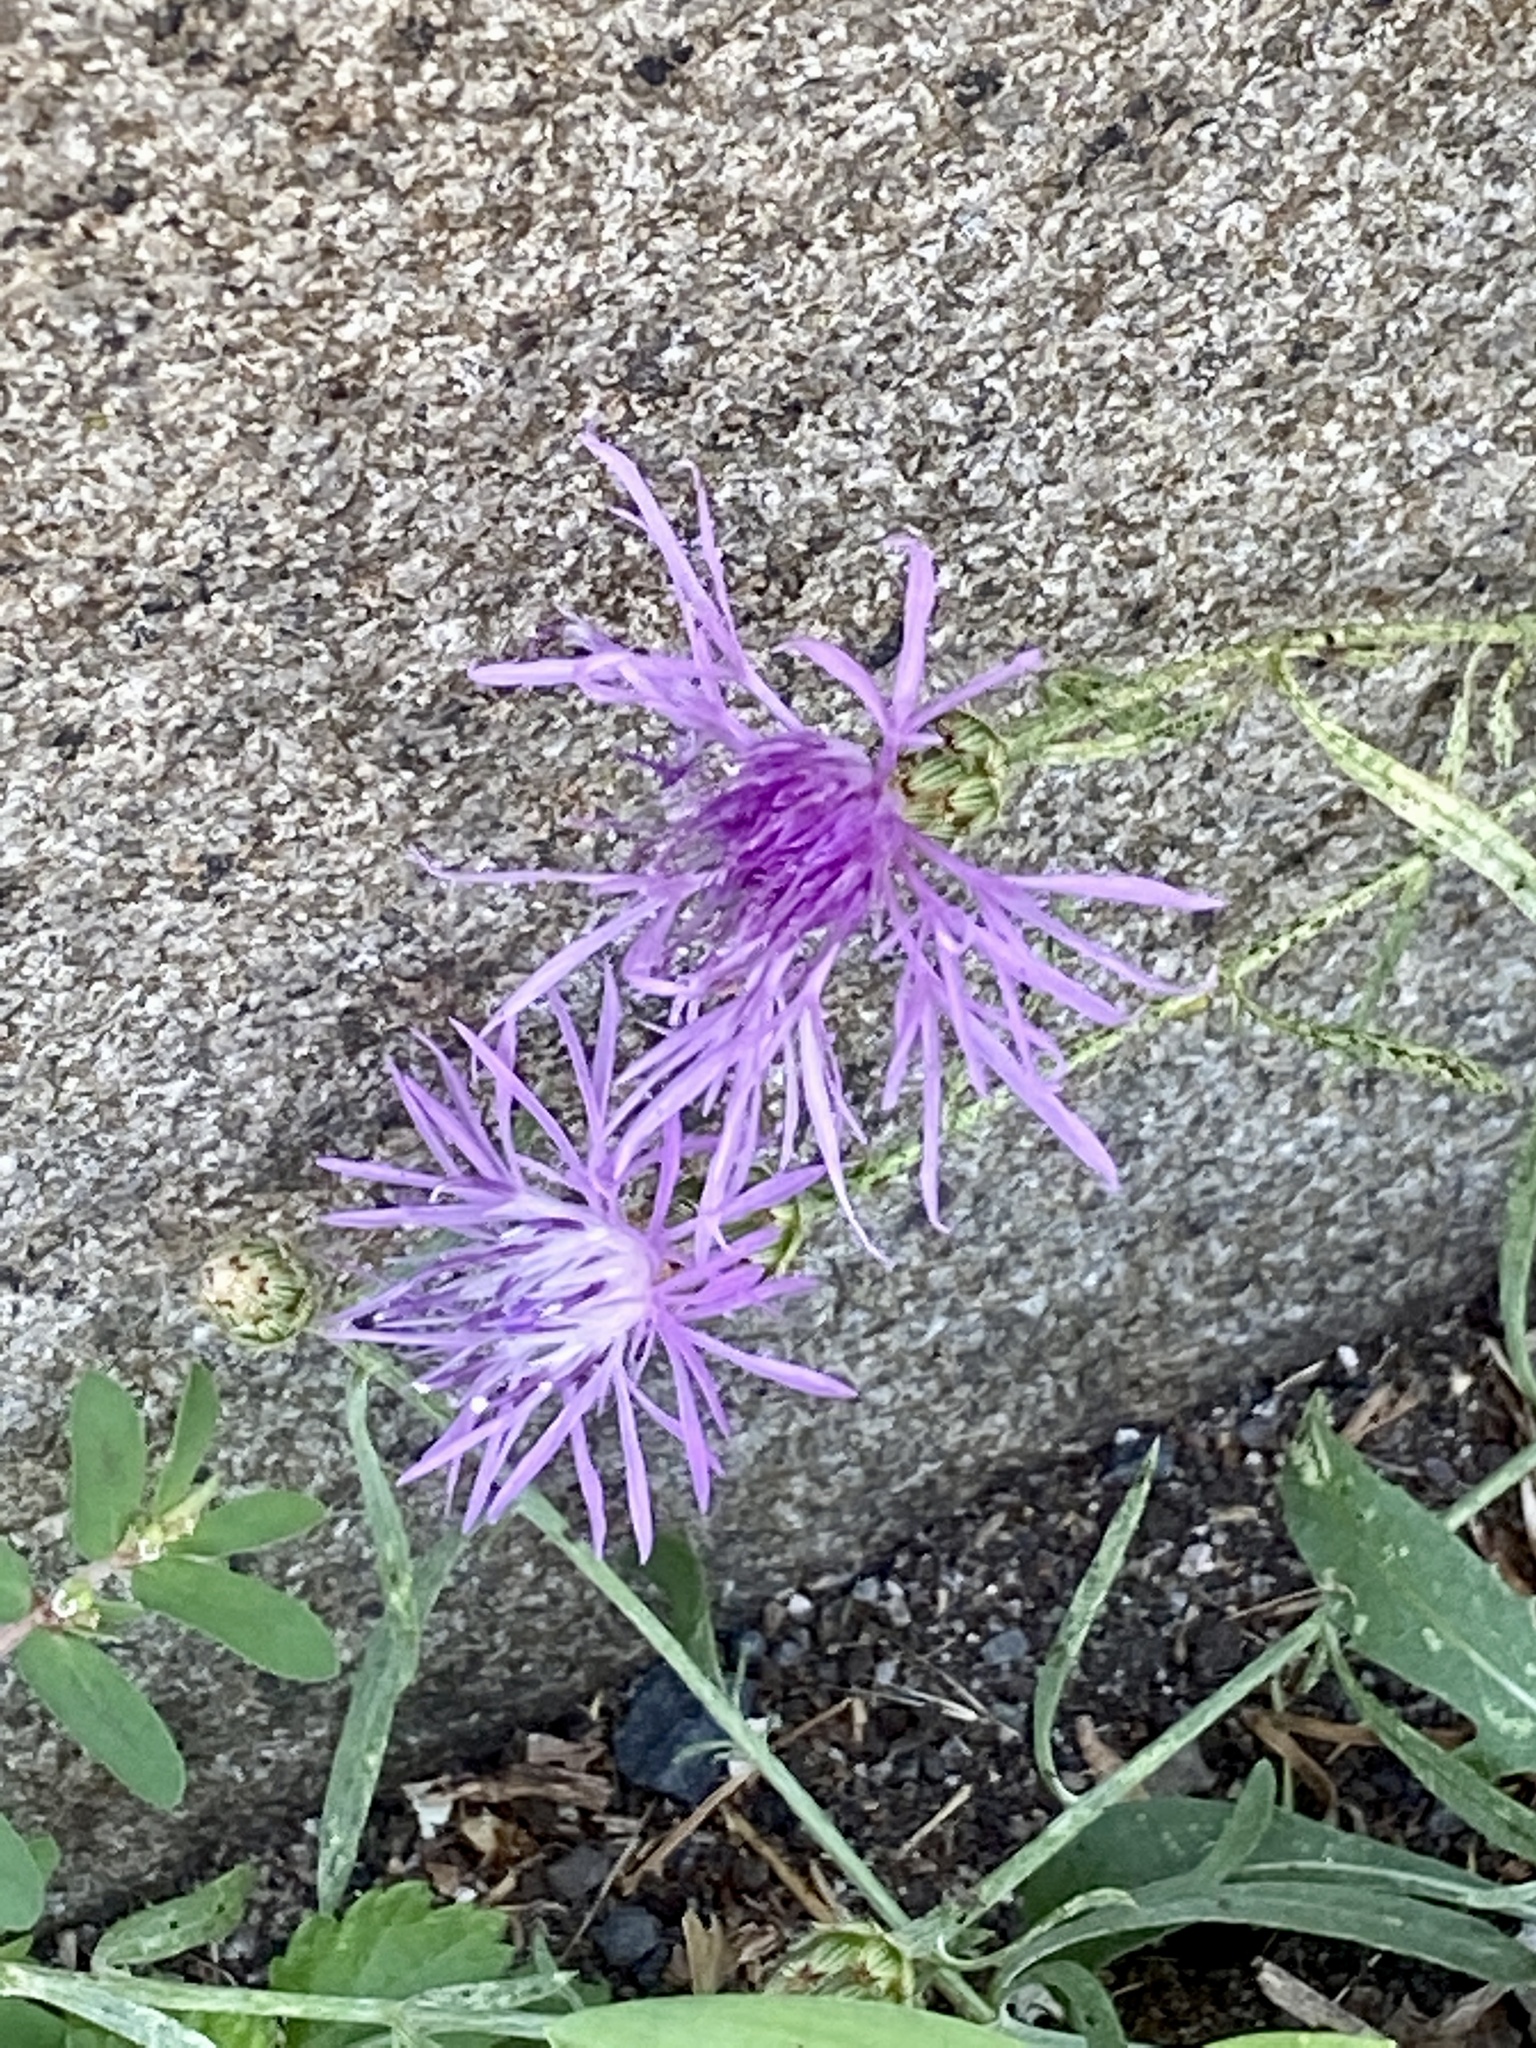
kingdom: Plantae
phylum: Tracheophyta
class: Magnoliopsida
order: Asterales
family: Asteraceae
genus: Centaurea
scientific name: Centaurea stoebe
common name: Spotted knapweed
